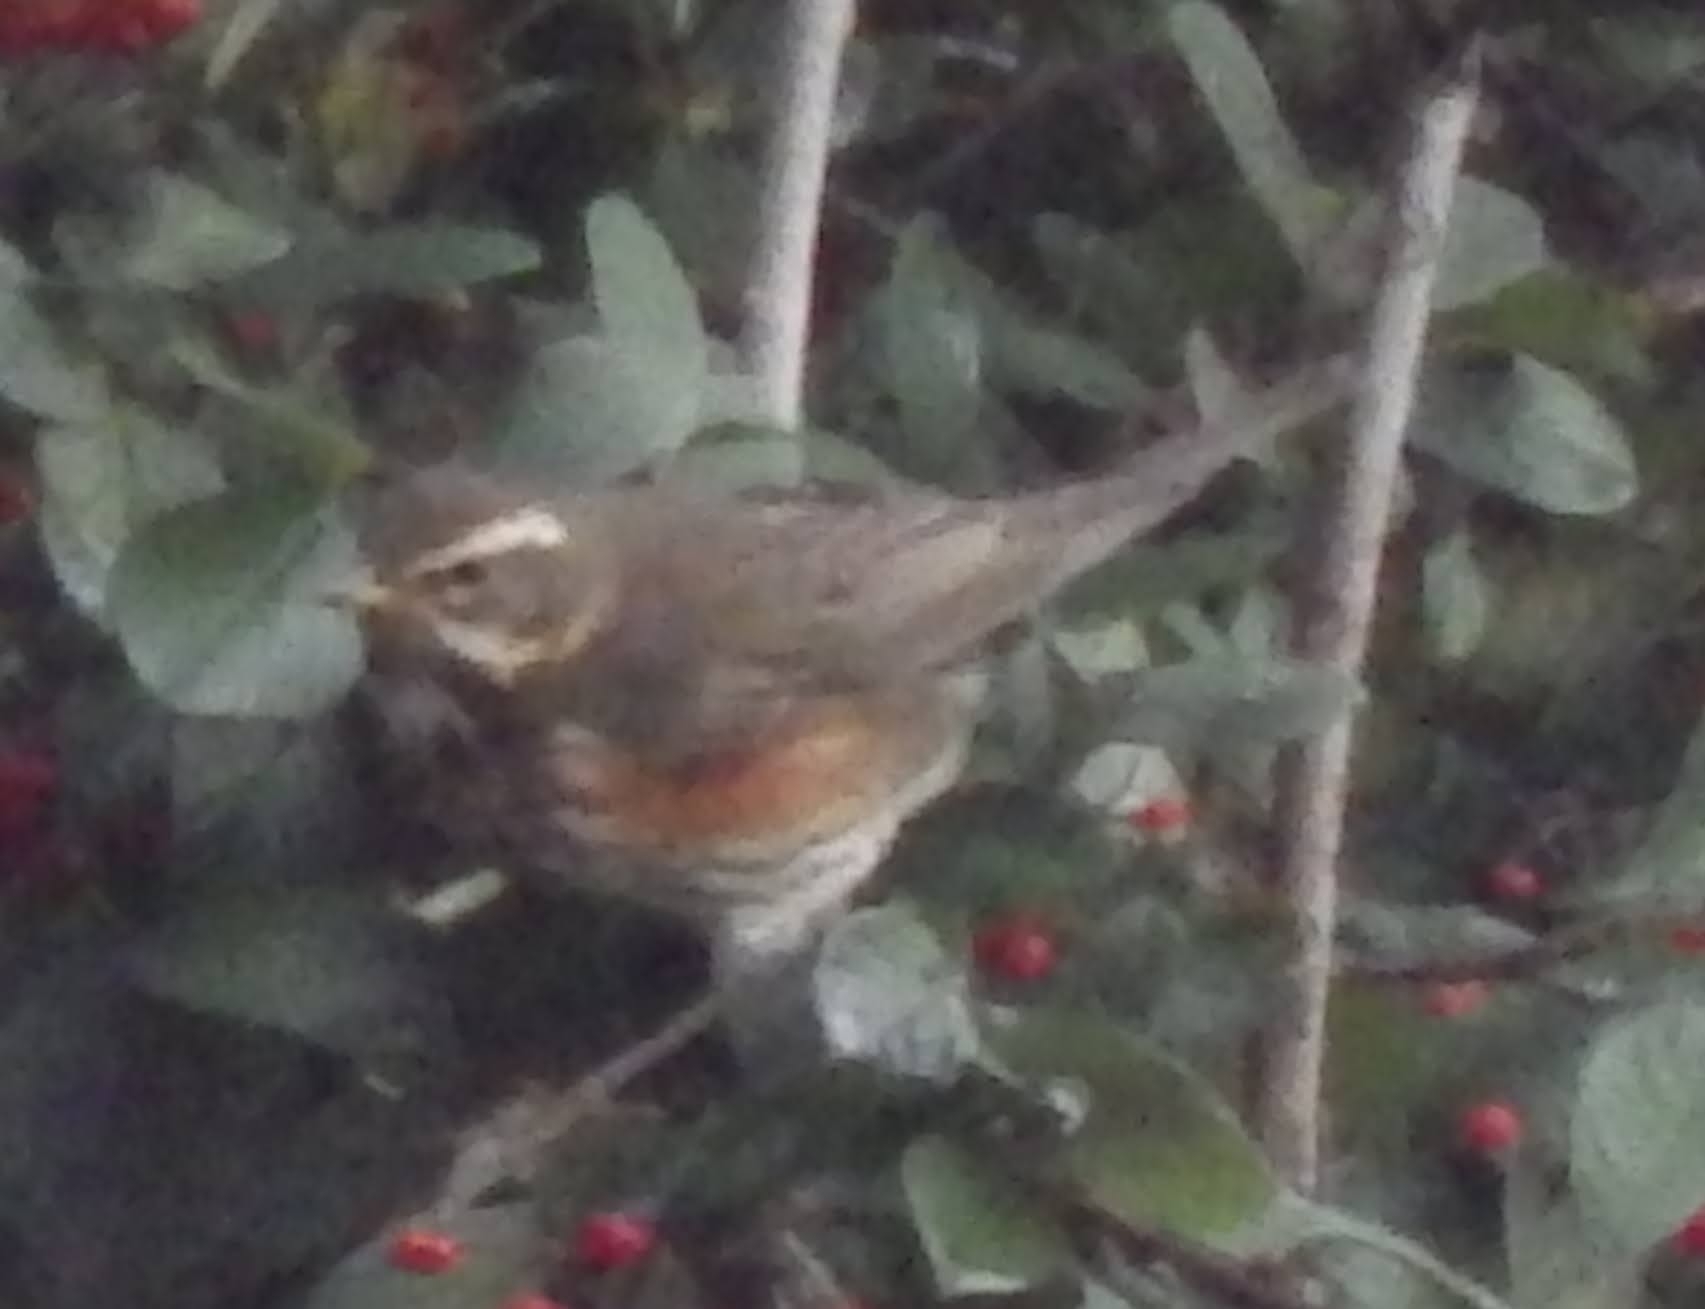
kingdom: Animalia
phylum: Chordata
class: Aves
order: Passeriformes
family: Turdidae
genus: Turdus
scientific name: Turdus iliacus
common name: Redwing
